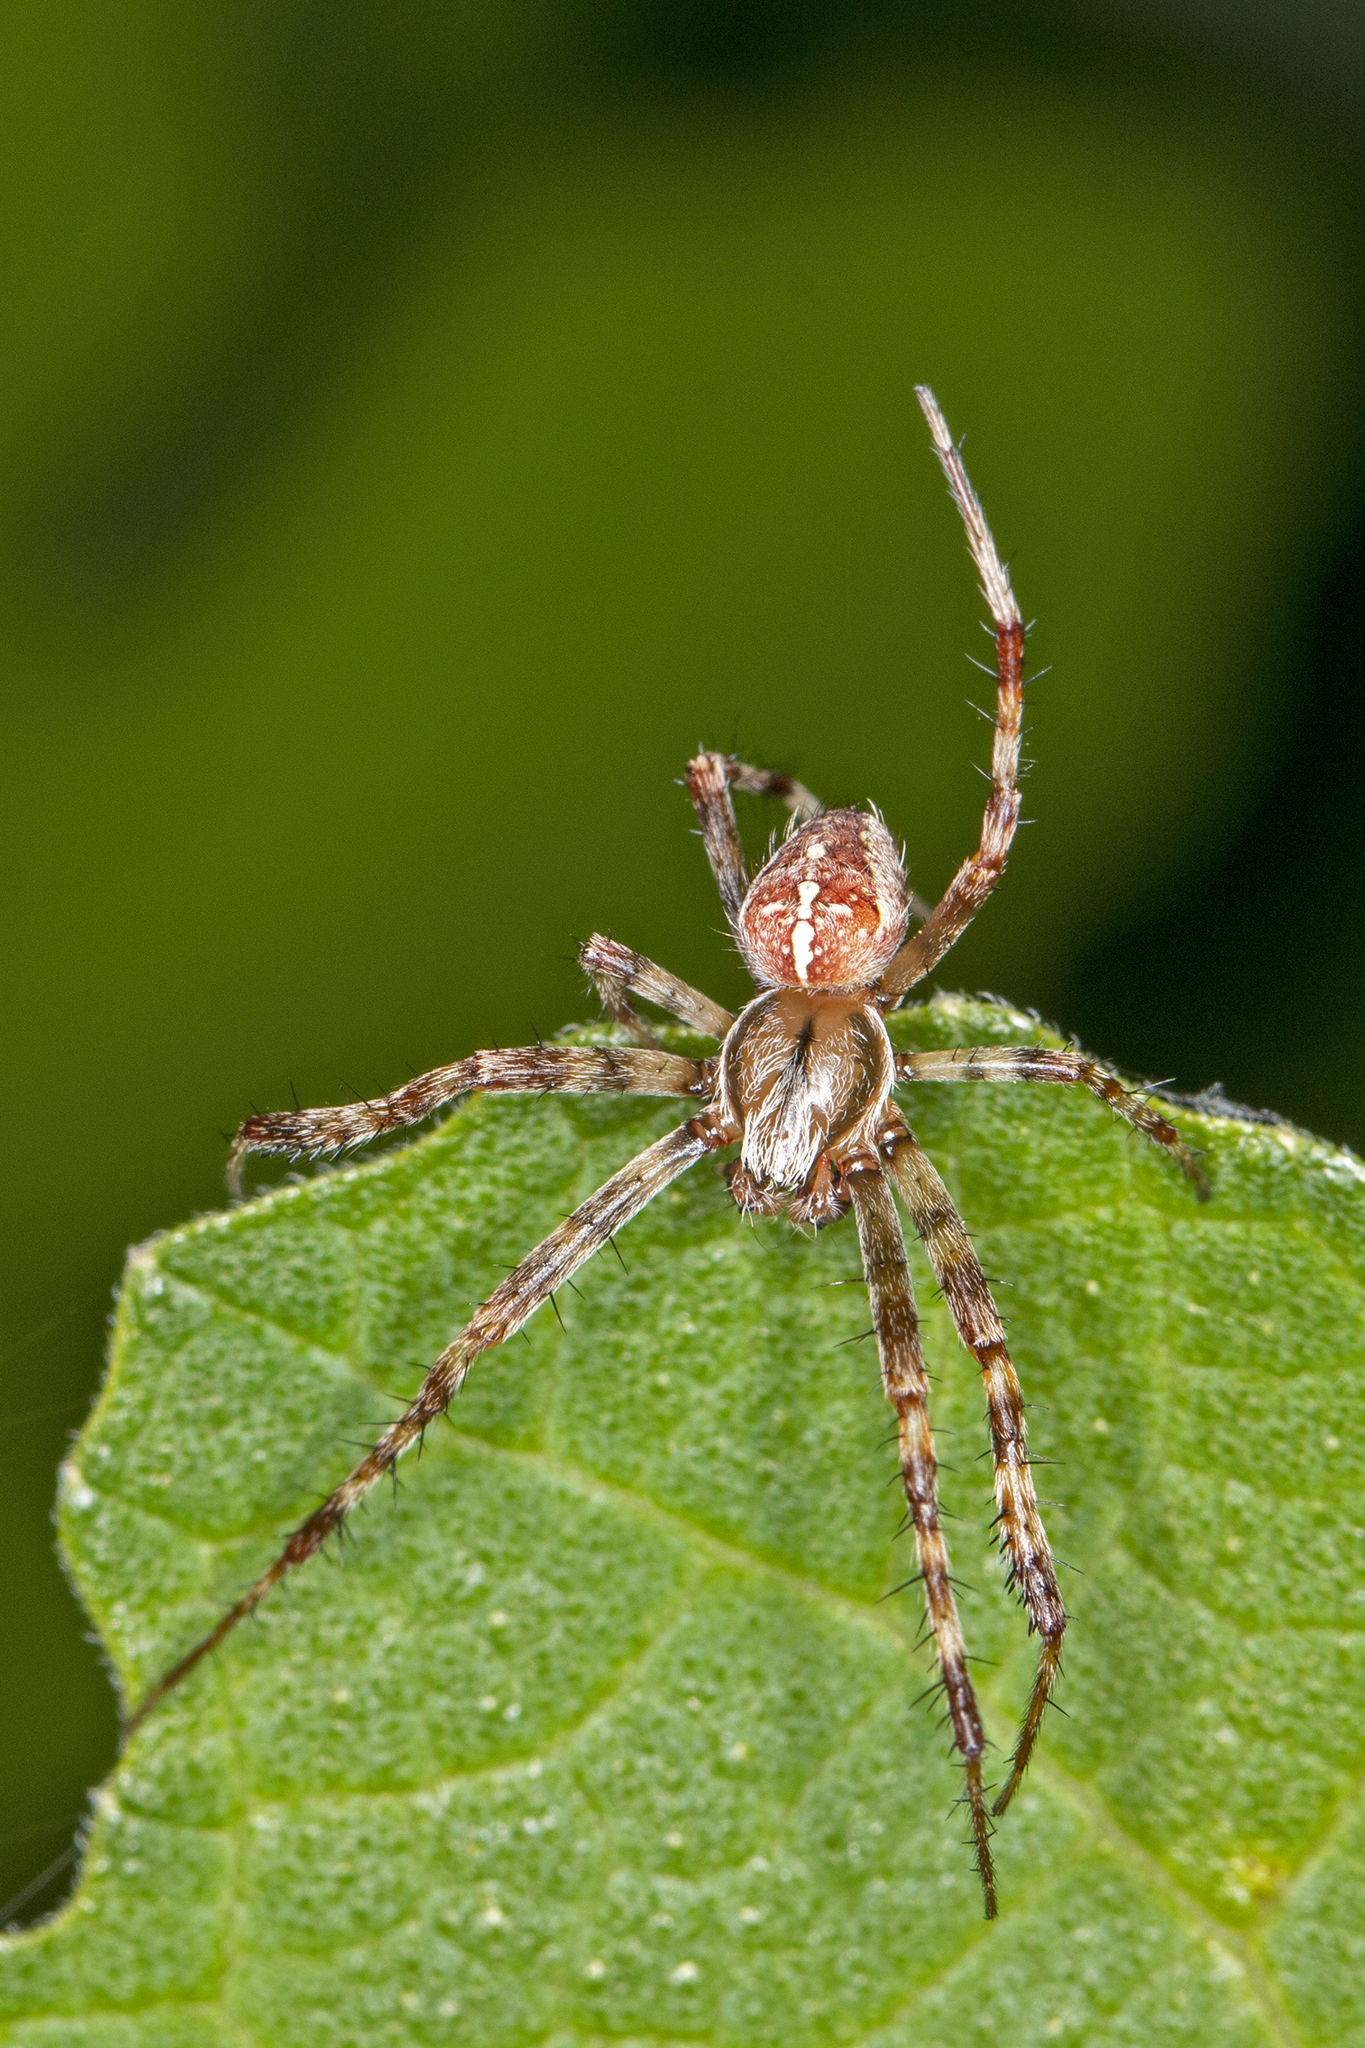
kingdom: Animalia
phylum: Arthropoda
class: Arachnida
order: Araneae
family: Araneidae
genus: Araneus
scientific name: Araneus diadematus
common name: Cross orbweaver
